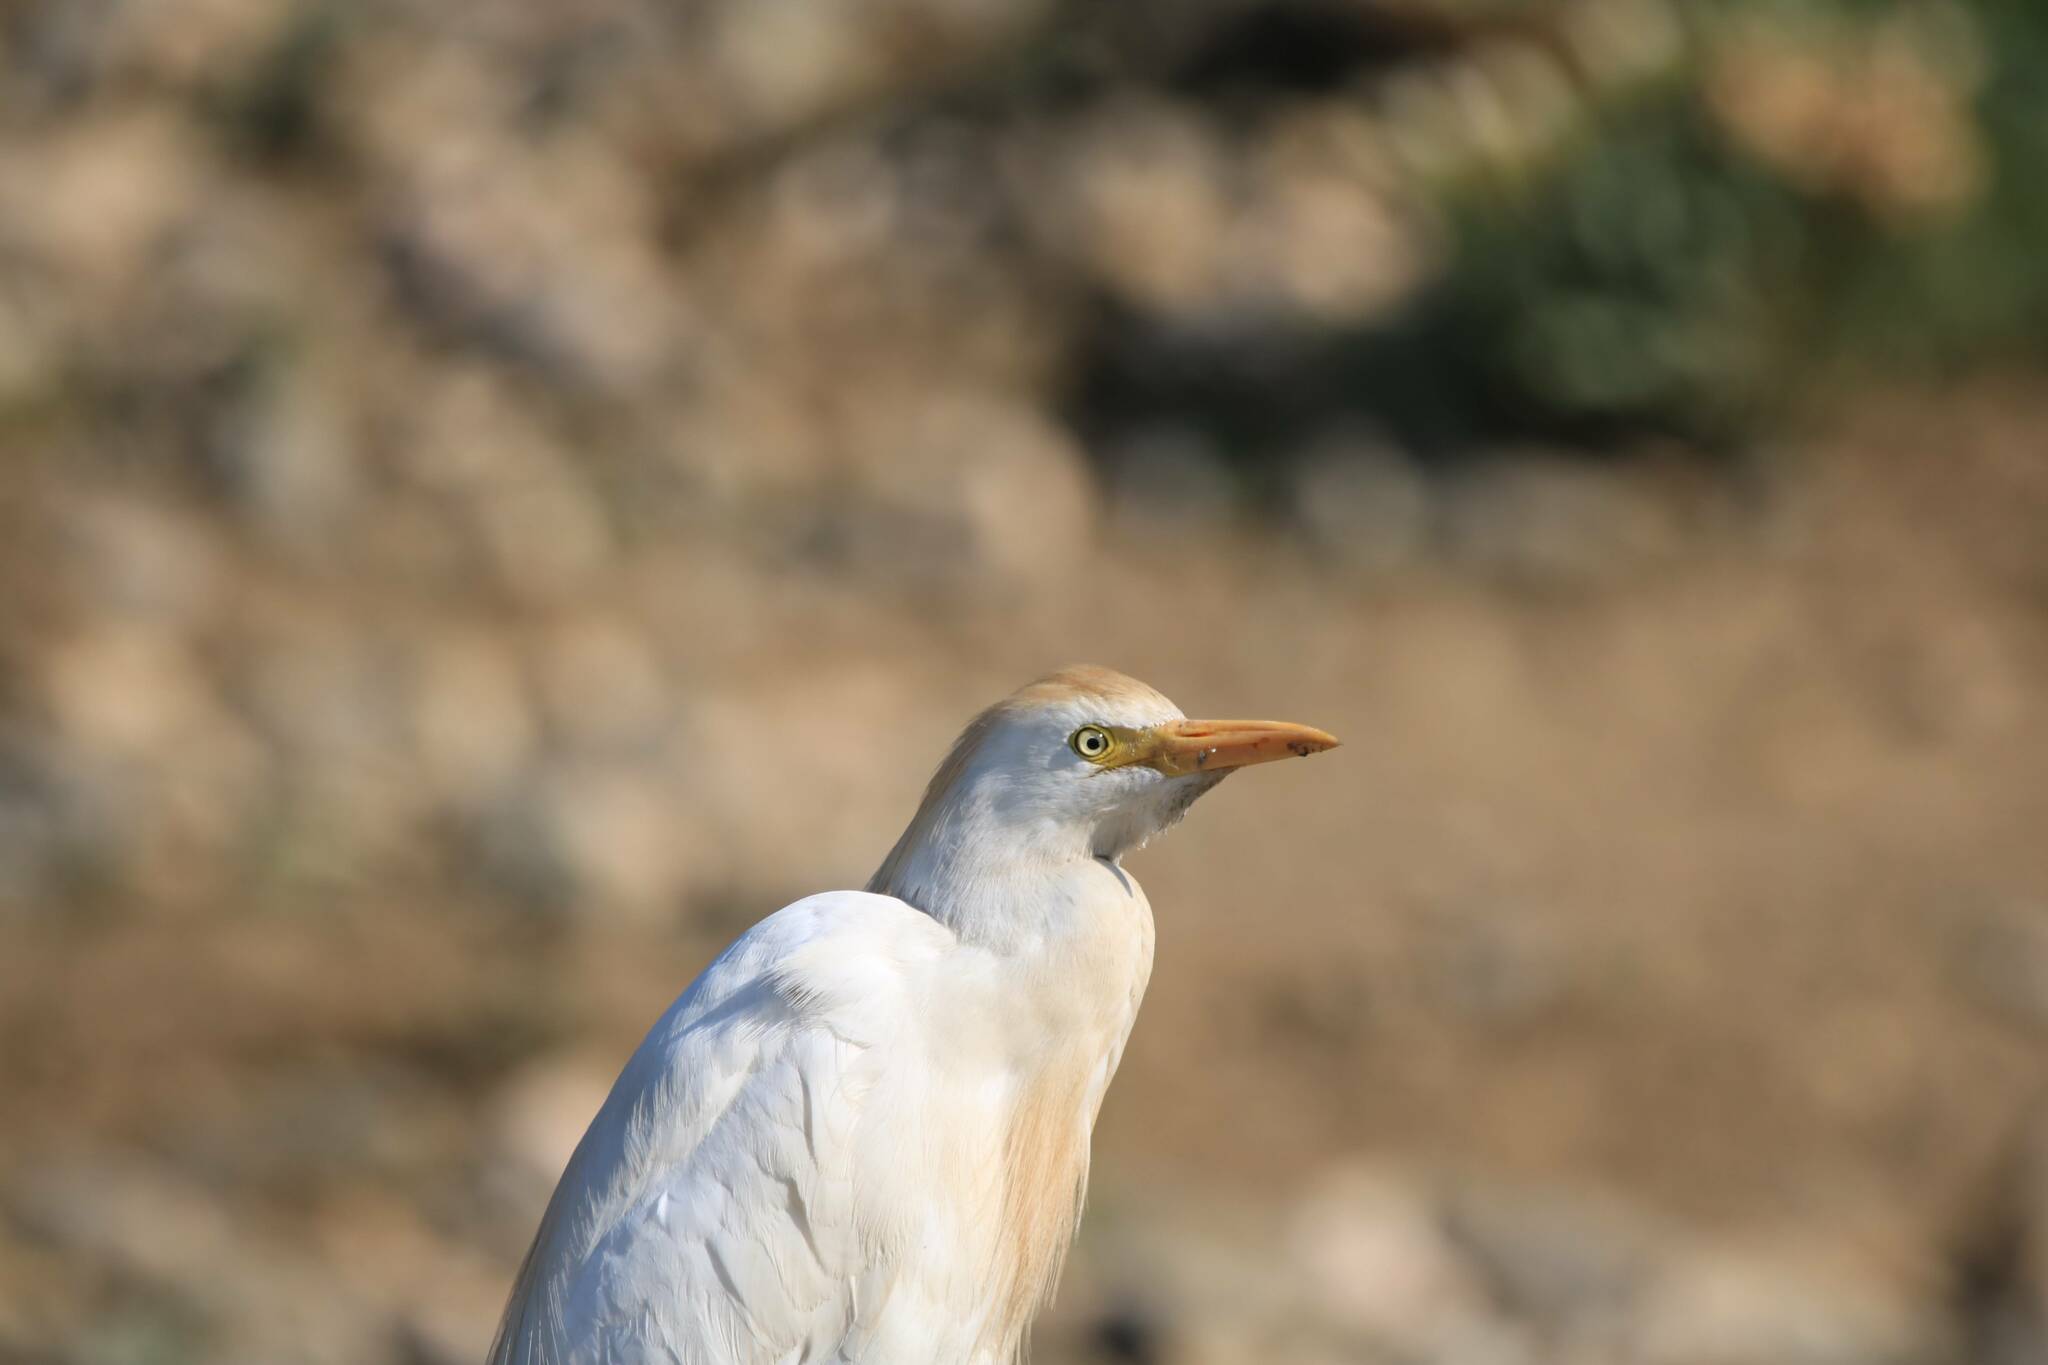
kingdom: Animalia
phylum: Chordata
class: Aves
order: Pelecaniformes
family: Ardeidae
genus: Bubulcus
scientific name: Bubulcus ibis
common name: Cattle egret
